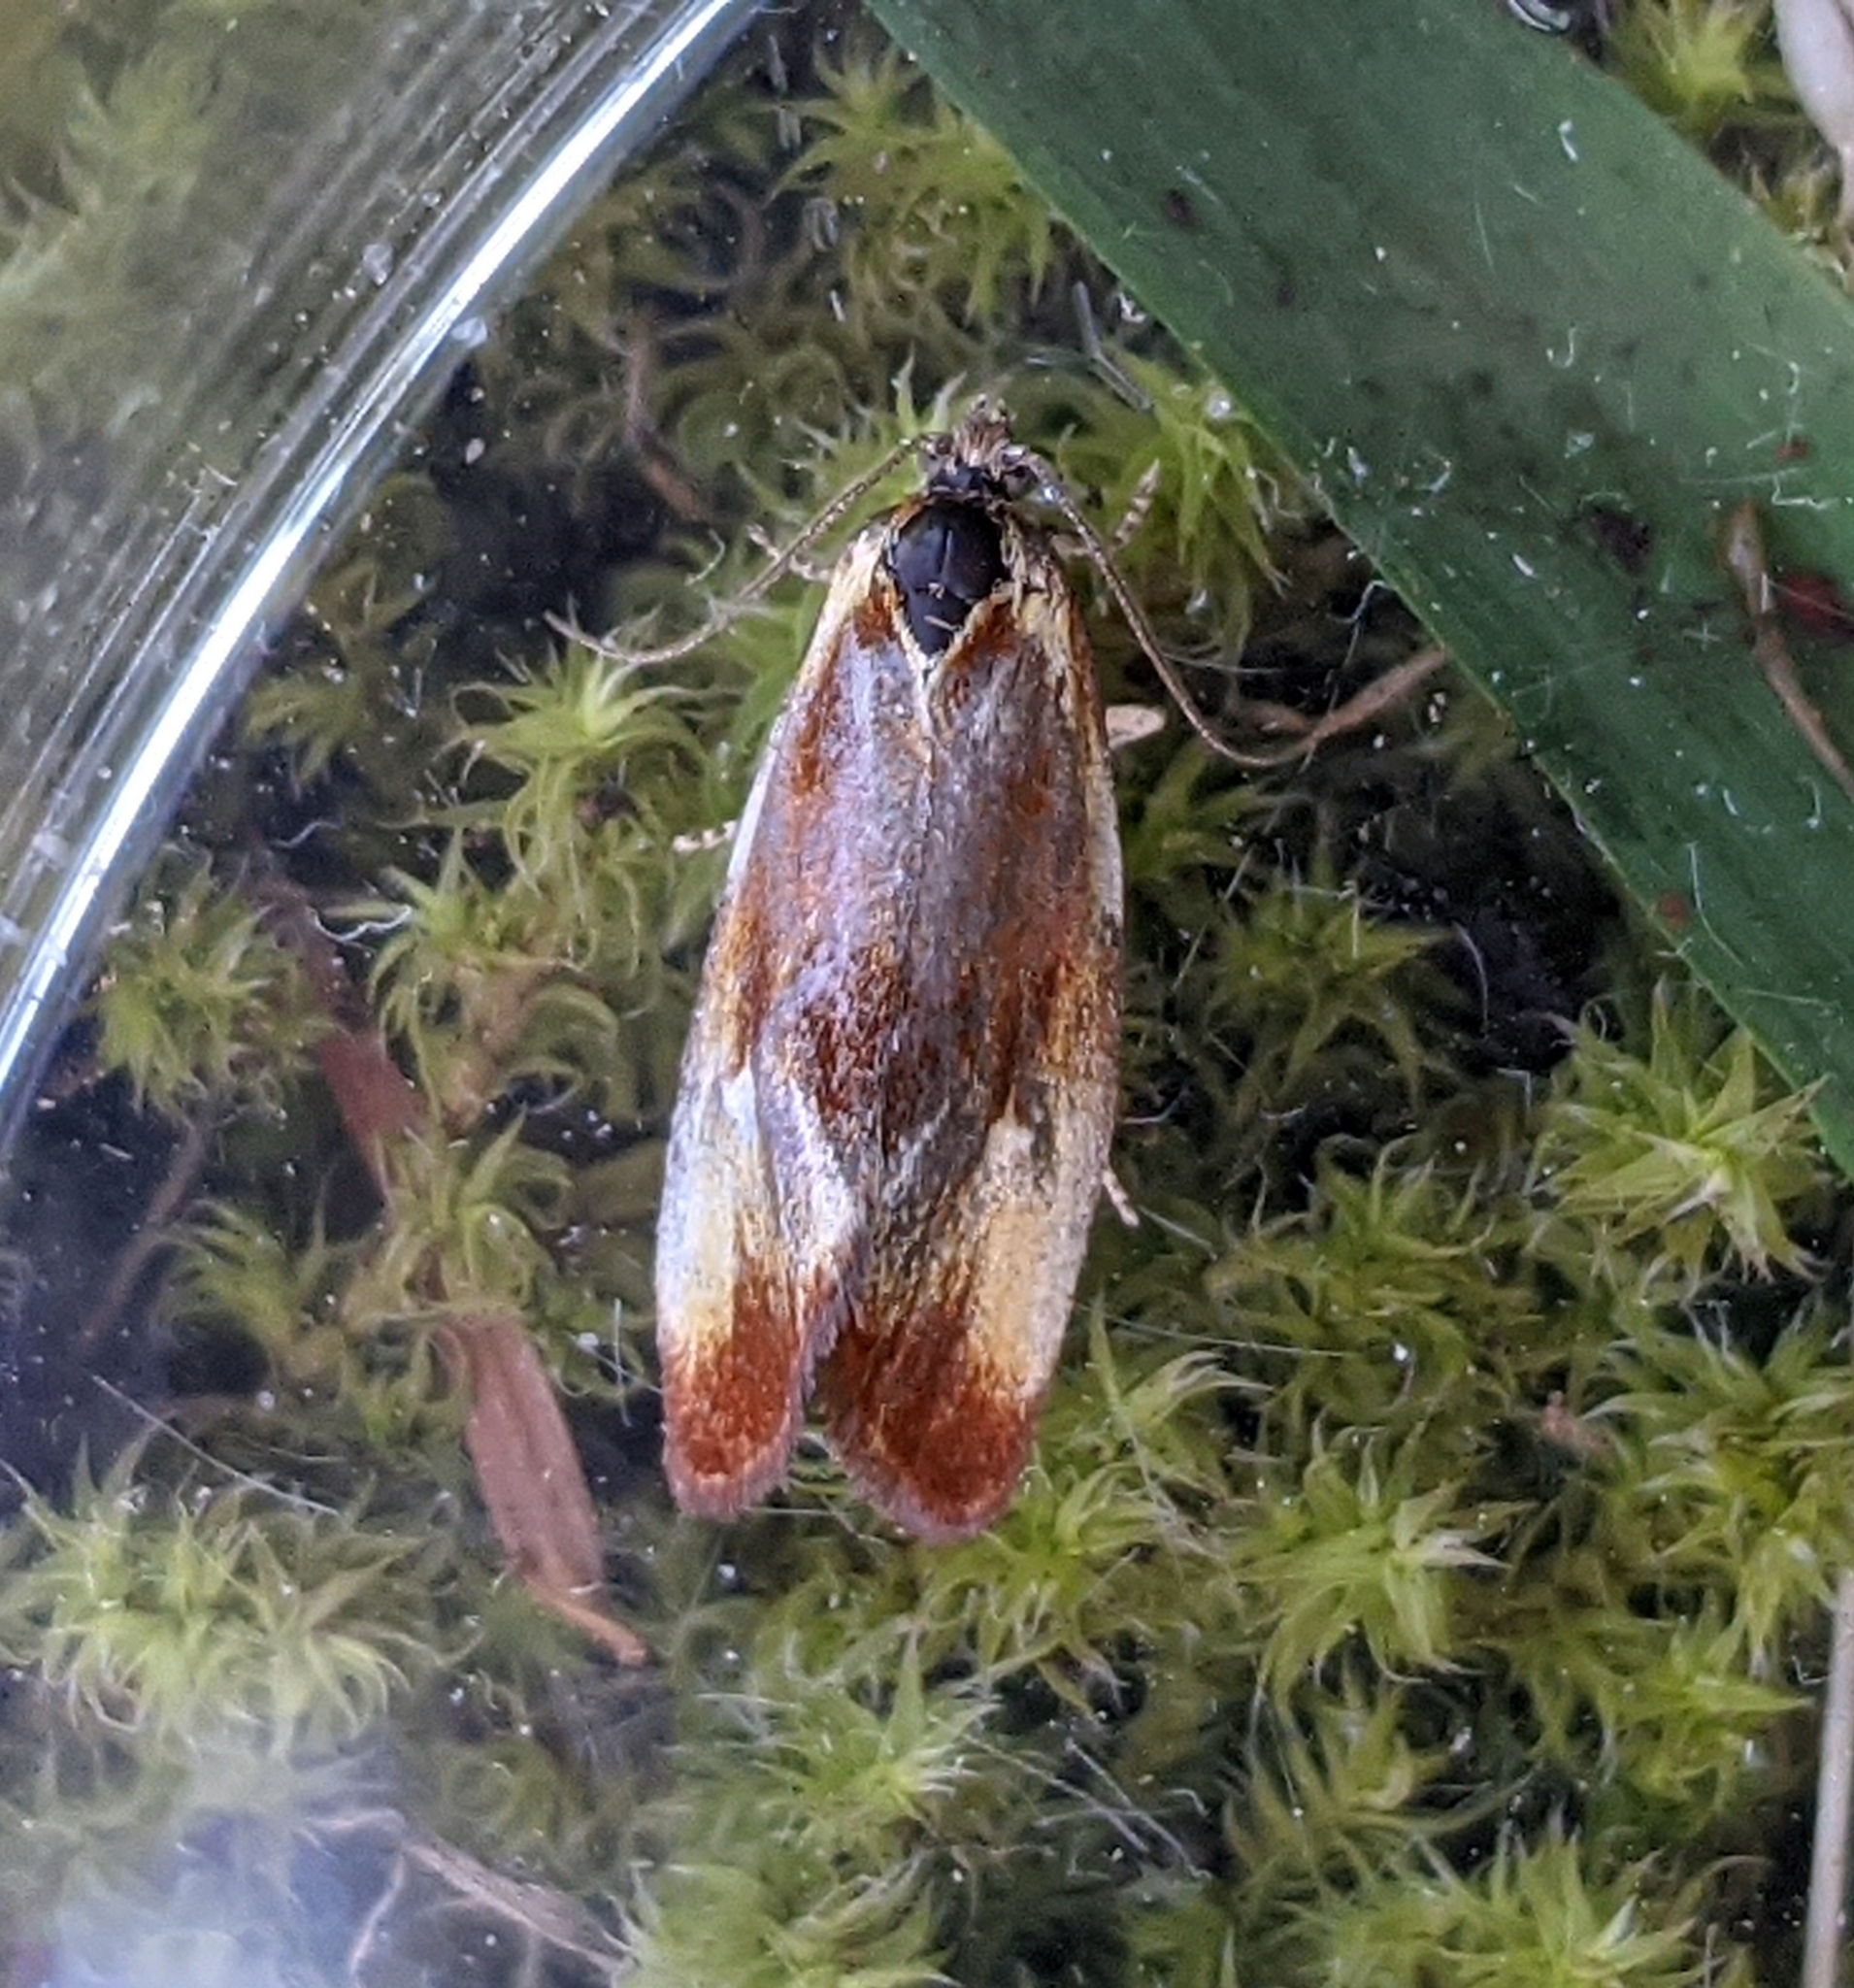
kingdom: Animalia
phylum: Arthropoda
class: Insecta
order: Lepidoptera
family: Tortricidae
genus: Eulia
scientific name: Eulia ministrana
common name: Brassy twist
